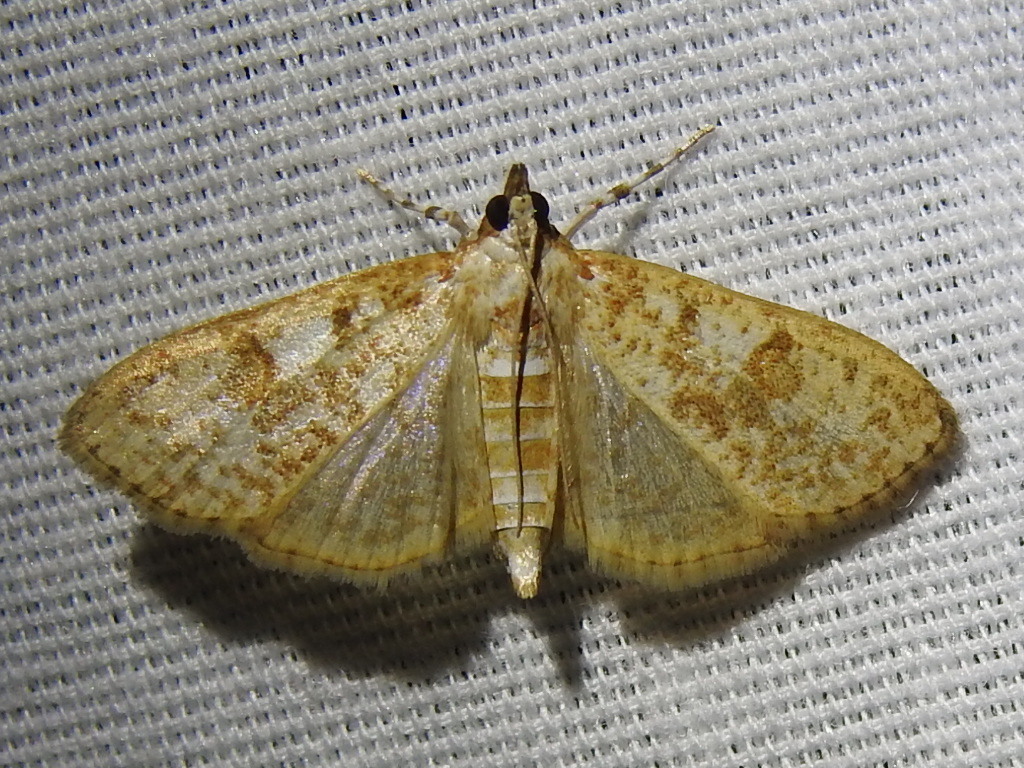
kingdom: Animalia
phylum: Arthropoda
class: Insecta
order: Lepidoptera
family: Crambidae
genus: Palpita
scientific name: Palpita freemanalis
